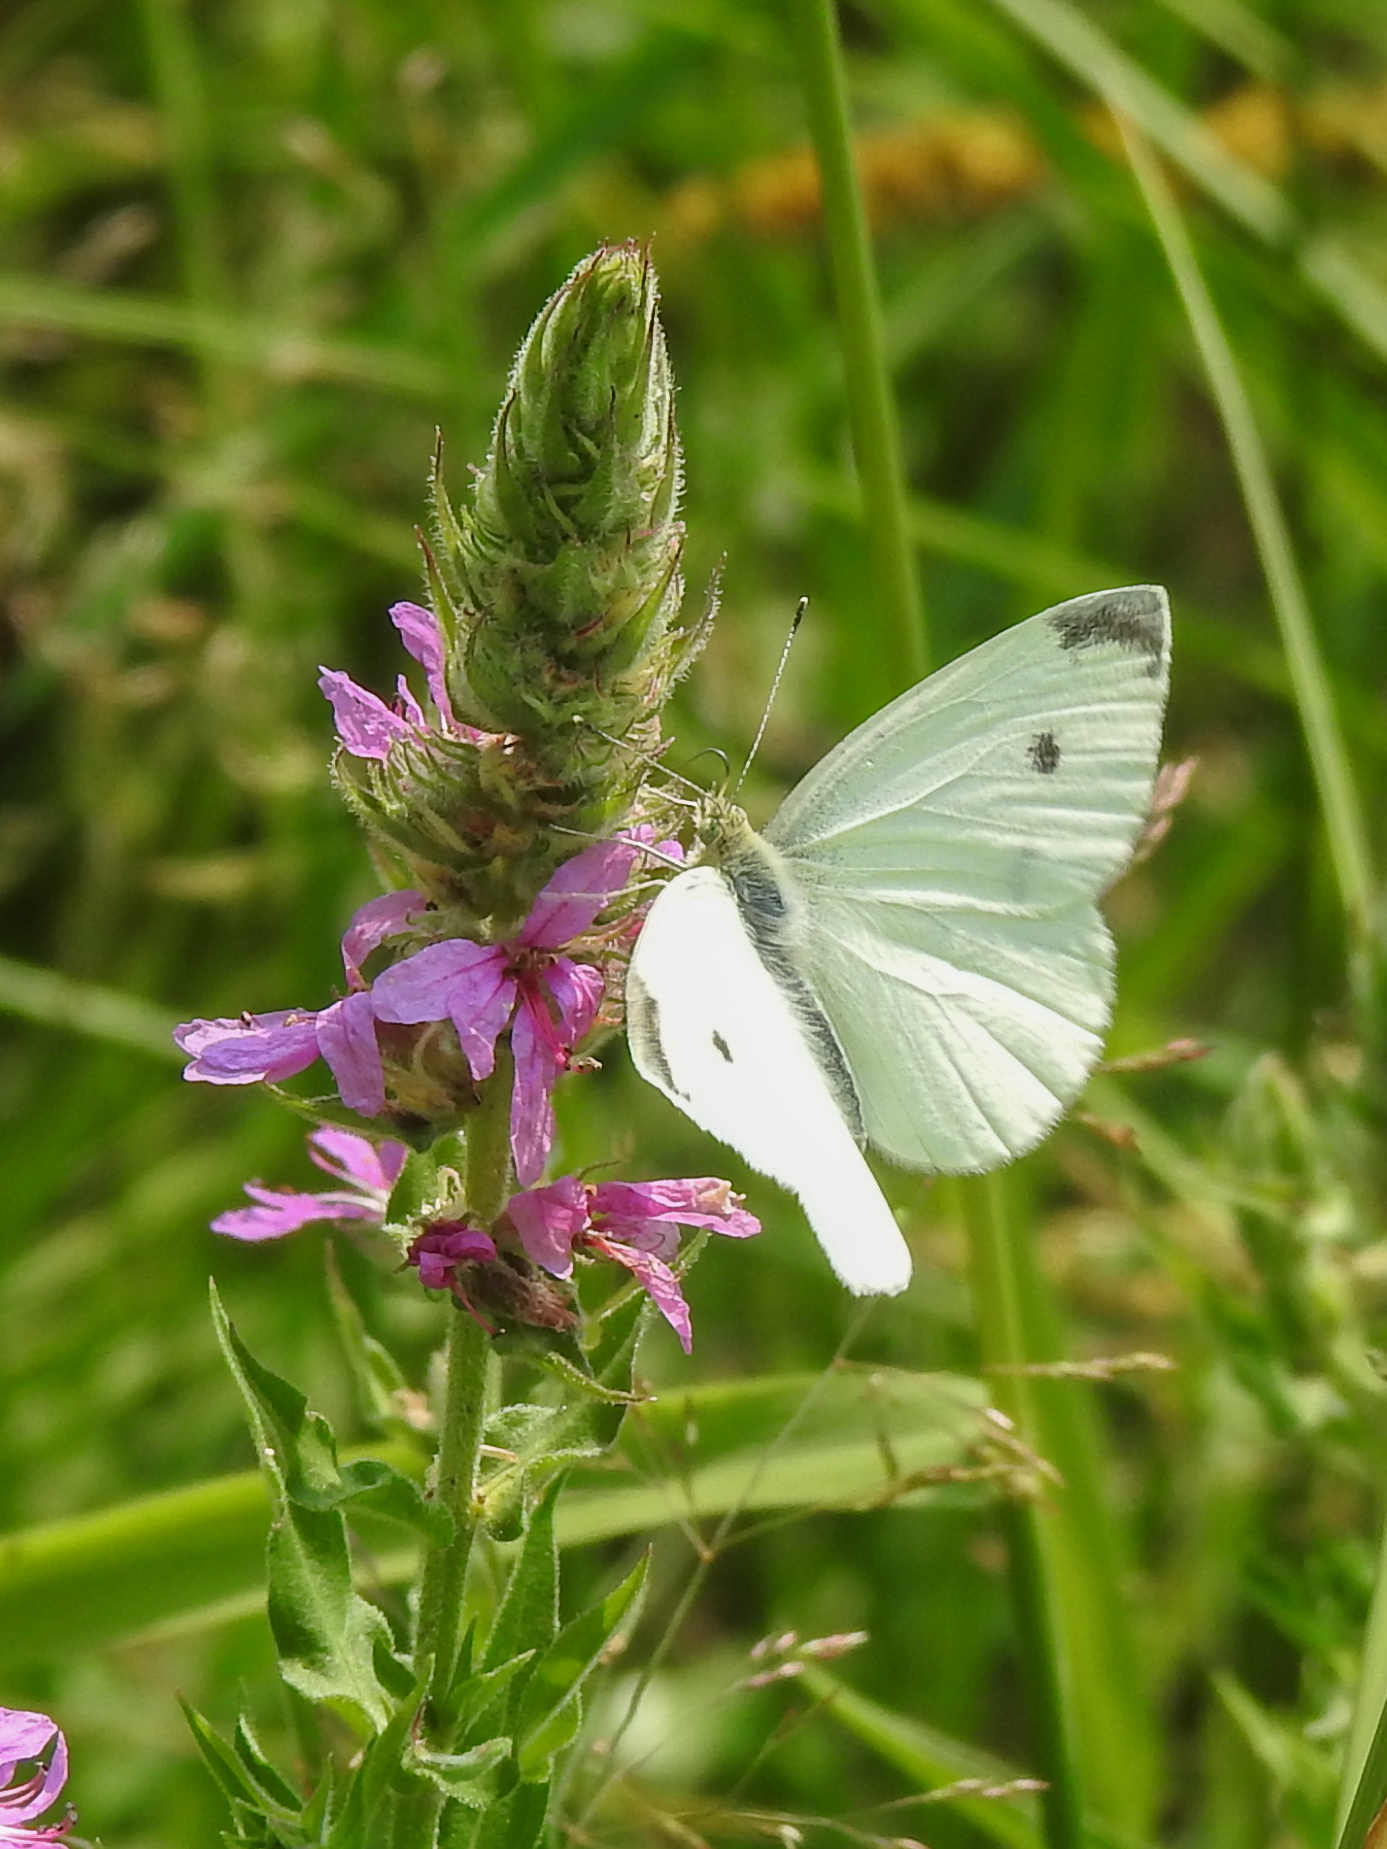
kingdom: Animalia
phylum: Arthropoda
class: Insecta
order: Lepidoptera
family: Pieridae
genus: Pieris
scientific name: Pieris rapae
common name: Small white
